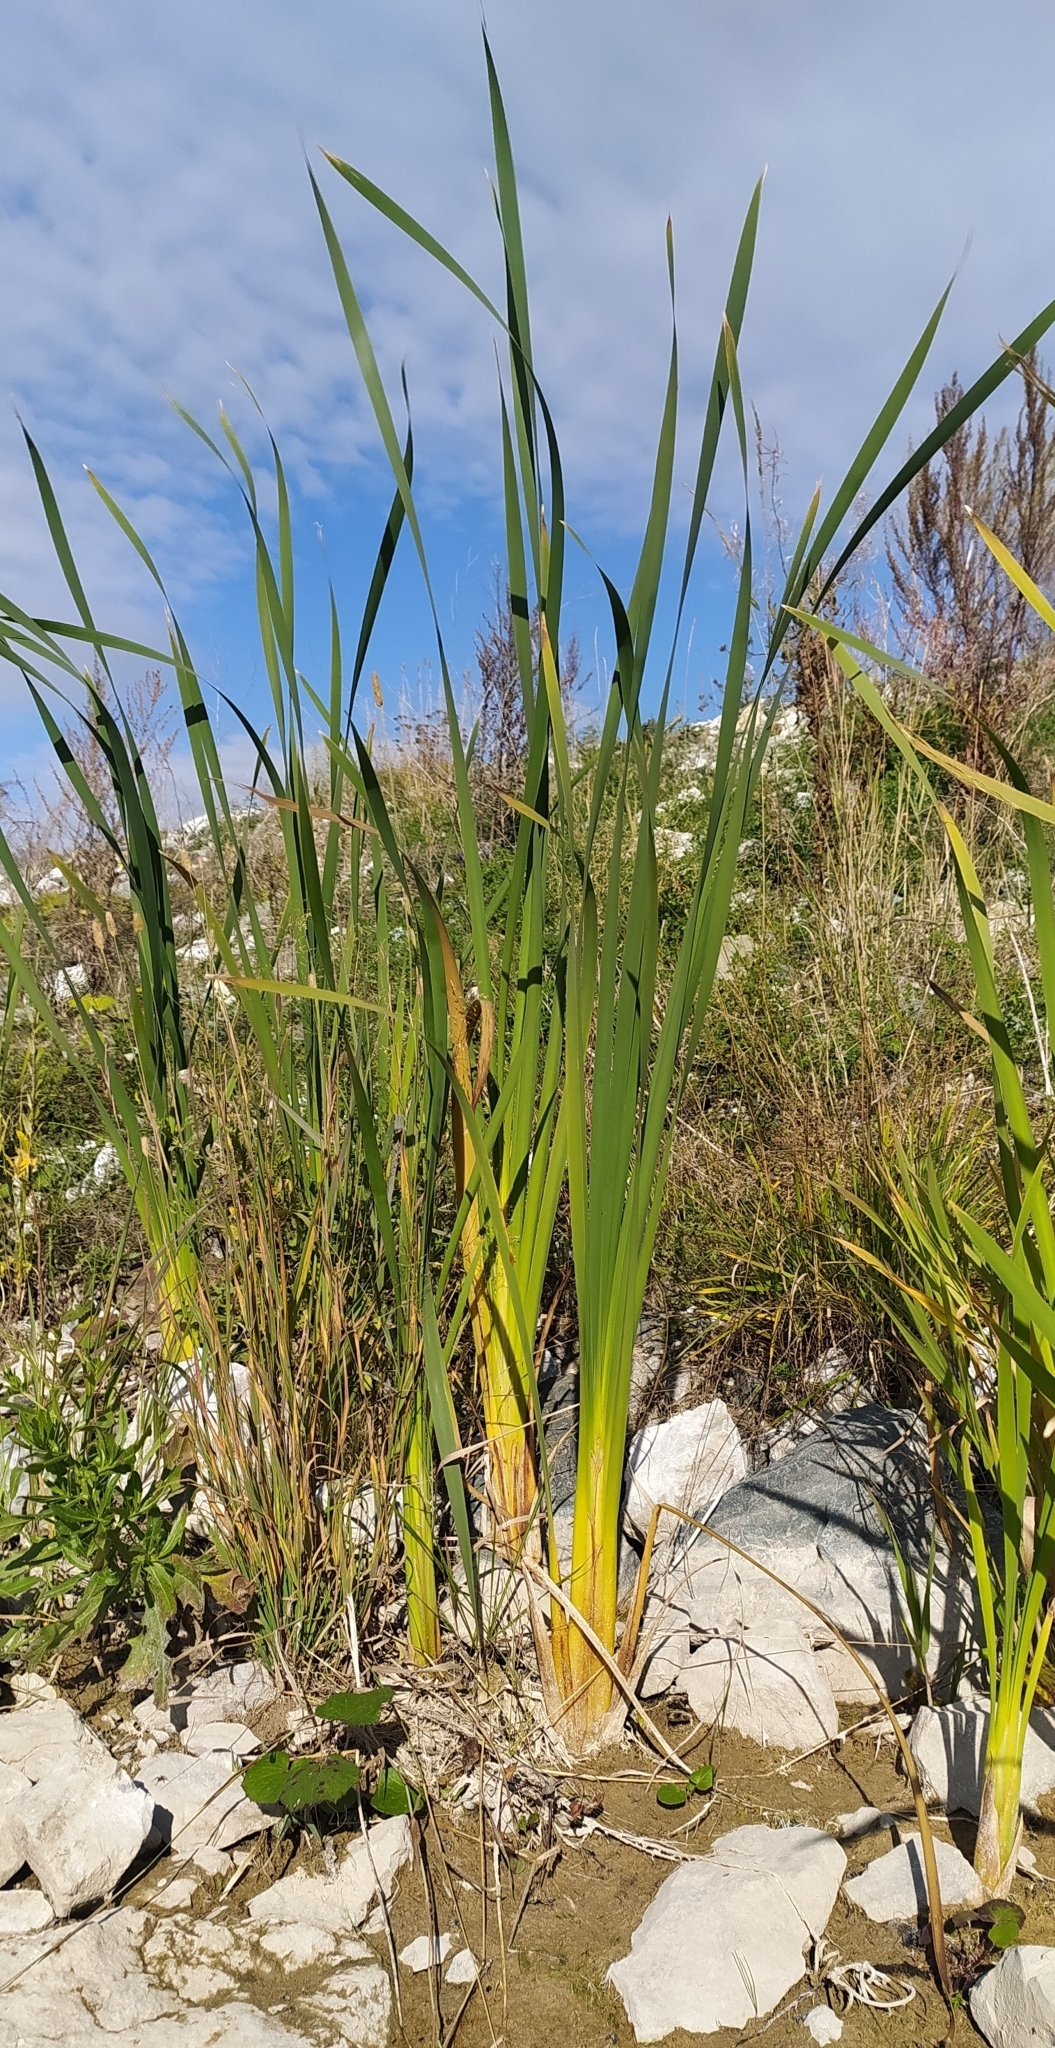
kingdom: Plantae
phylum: Tracheophyta
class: Liliopsida
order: Poales
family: Typhaceae
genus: Typha
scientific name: Typha latifolia
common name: Broadleaf cattail
